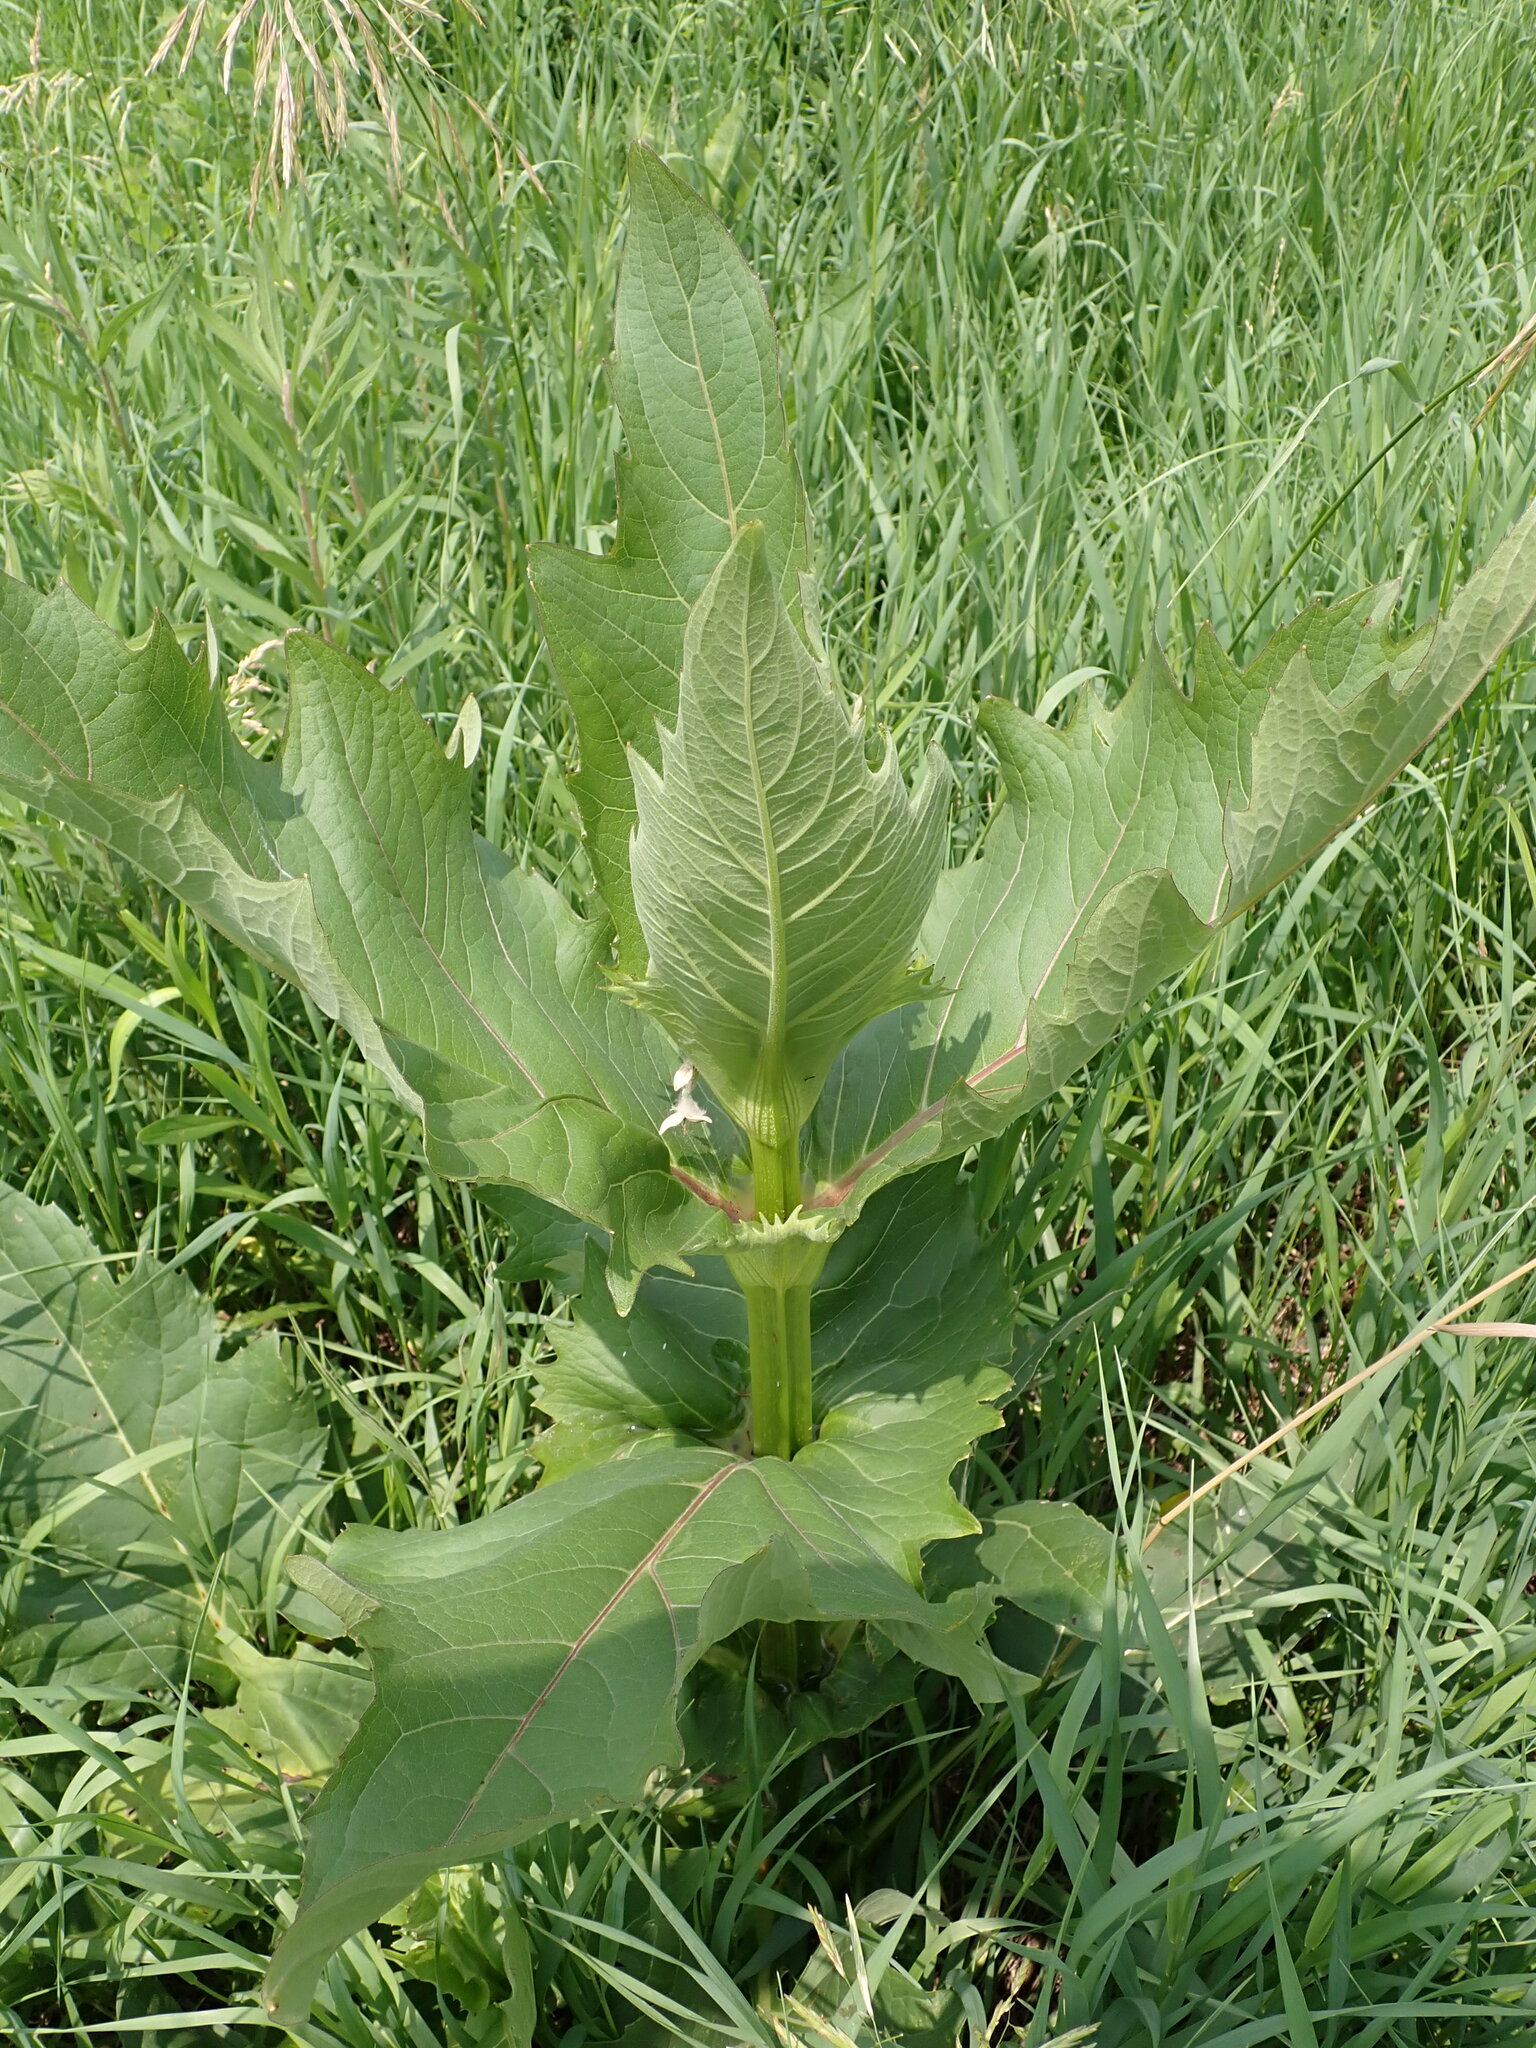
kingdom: Plantae
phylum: Tracheophyta
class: Magnoliopsida
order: Asterales
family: Asteraceae
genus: Silphium
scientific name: Silphium perfoliatum
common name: Cup-plant
